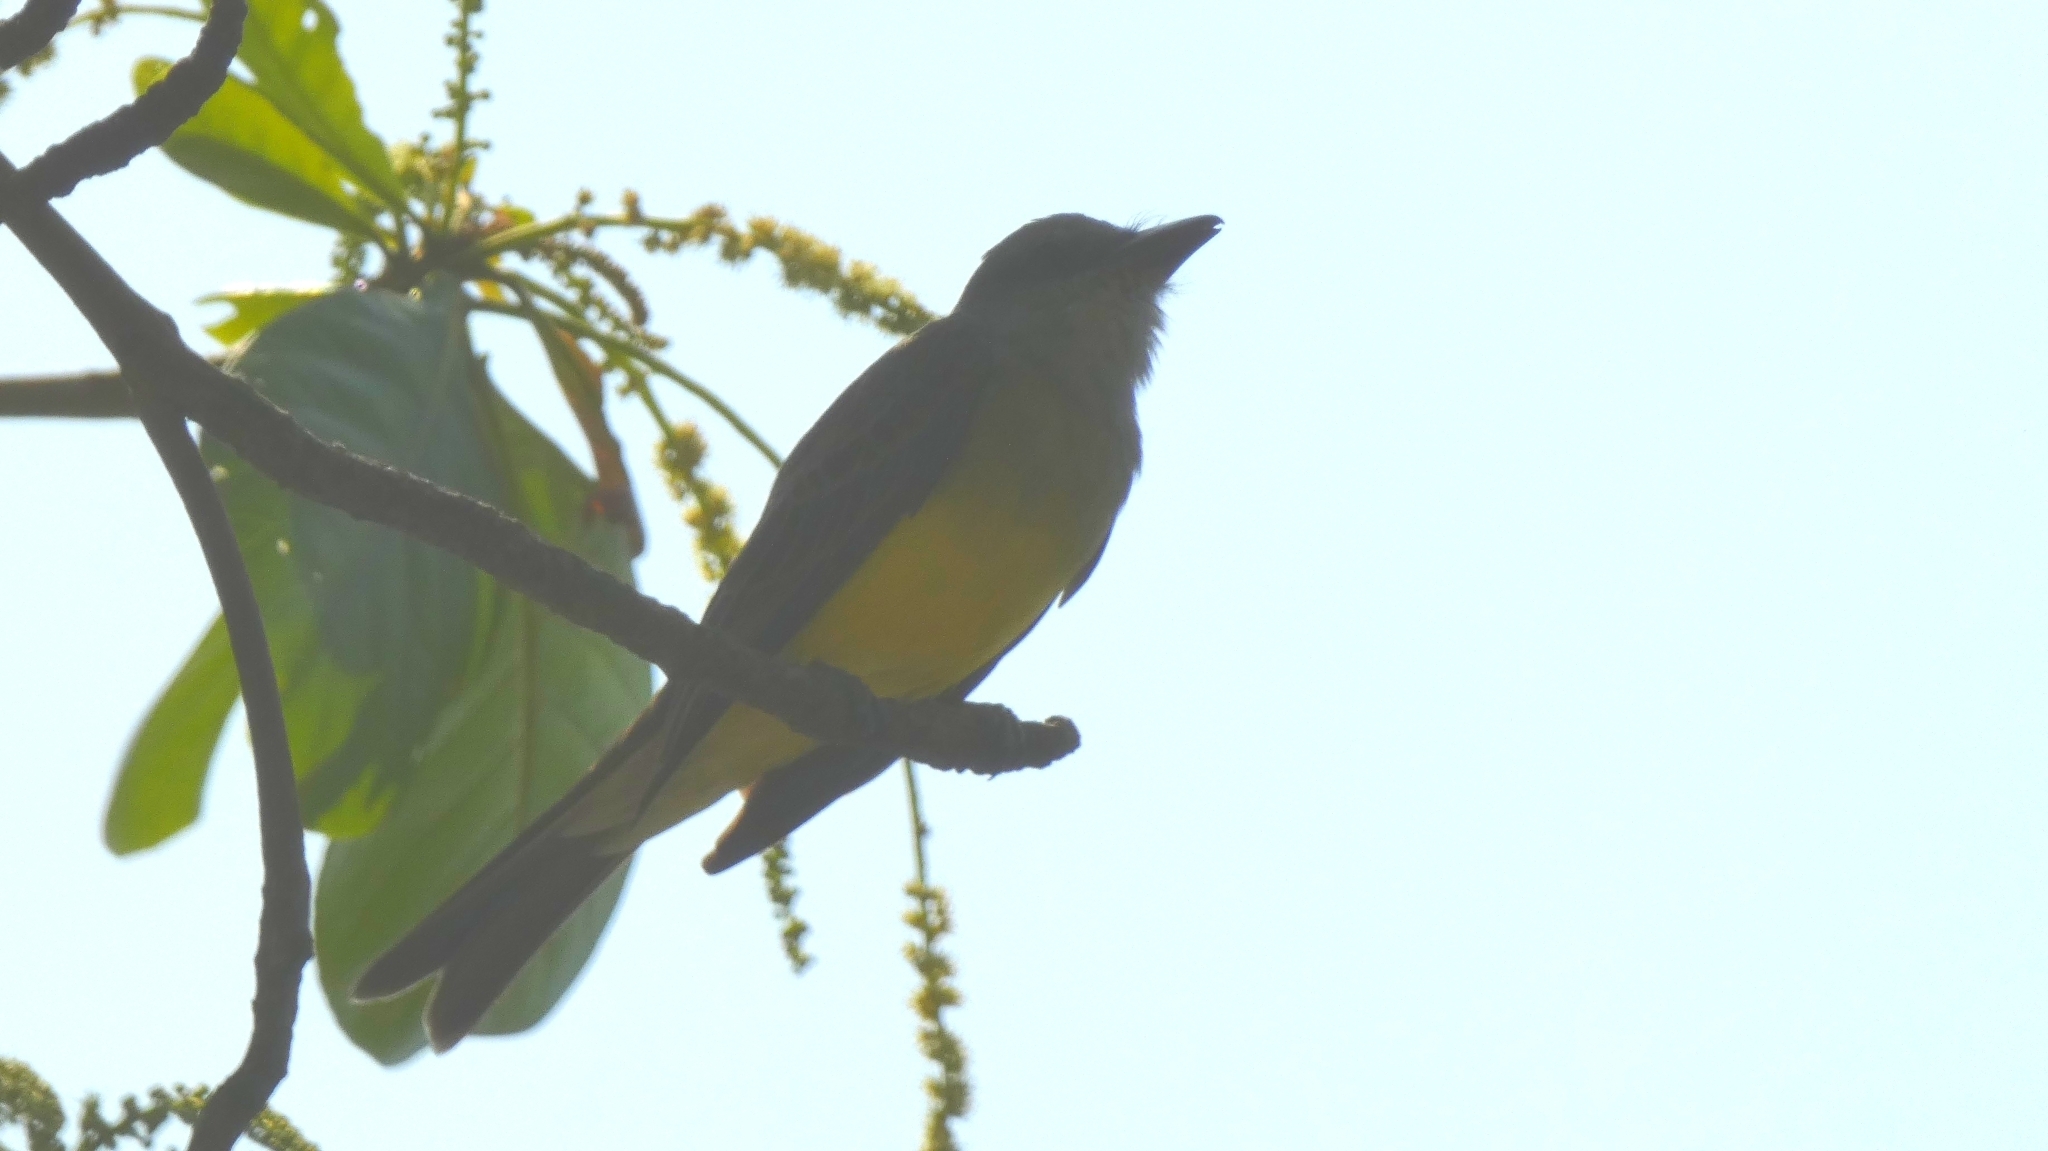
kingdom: Animalia
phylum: Chordata
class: Aves
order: Passeriformes
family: Tyrannidae
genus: Tyrannus
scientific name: Tyrannus melancholicus
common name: Tropical kingbird
